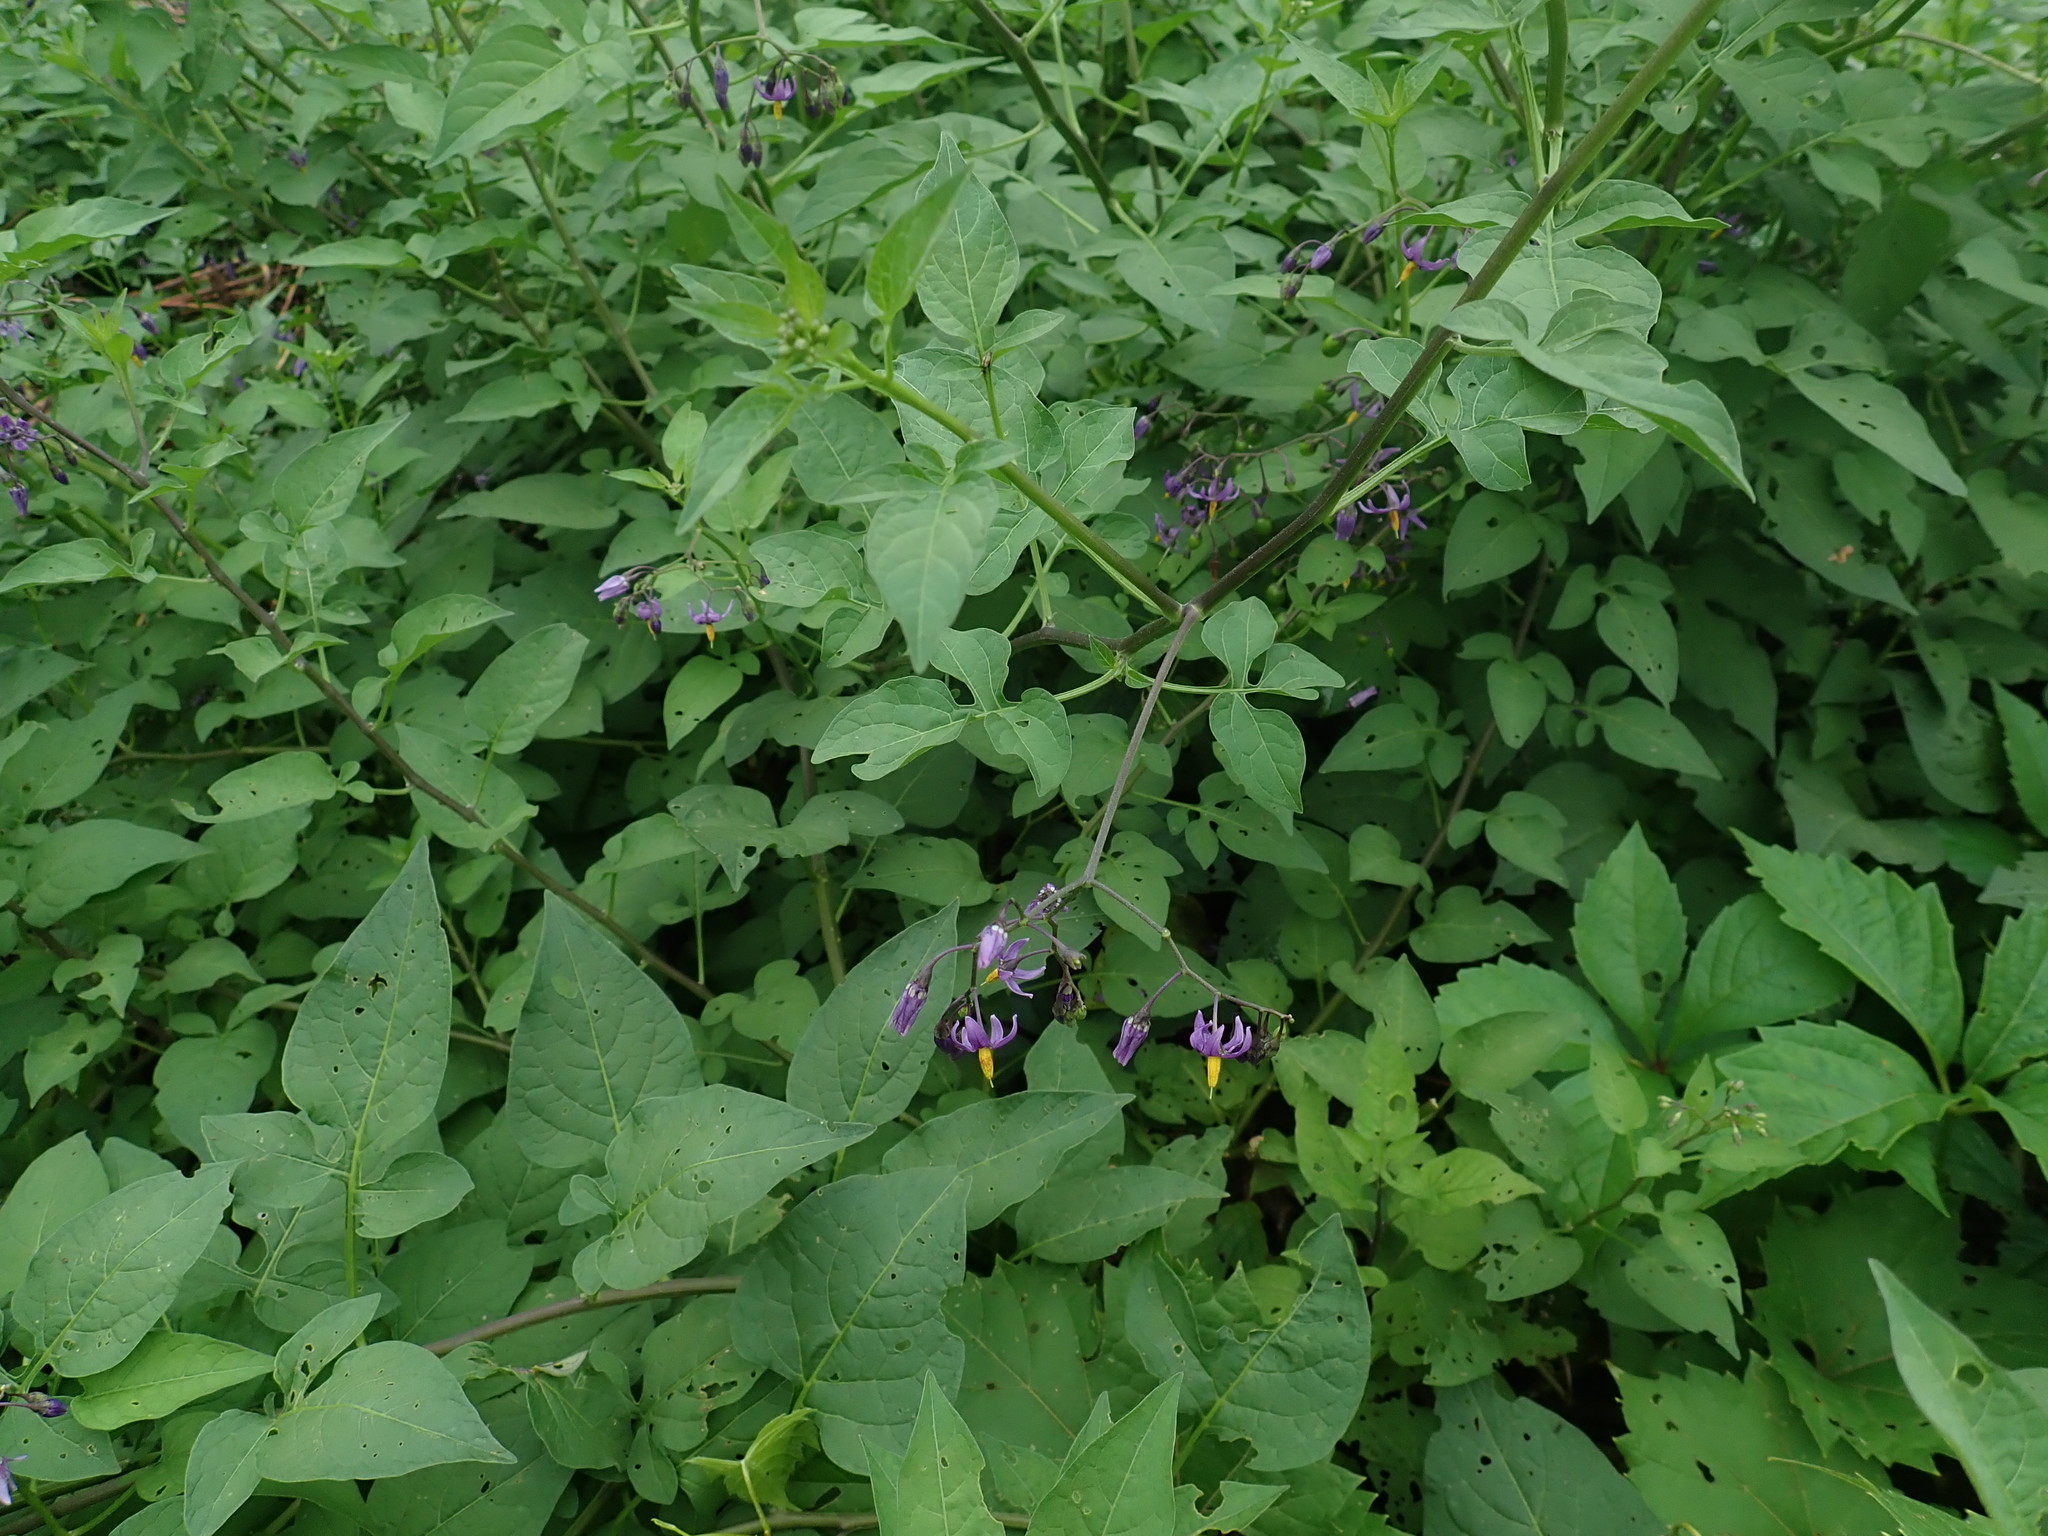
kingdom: Plantae
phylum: Tracheophyta
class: Magnoliopsida
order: Solanales
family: Solanaceae
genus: Solanum
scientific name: Solanum dulcamara
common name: Climbing nightshade
